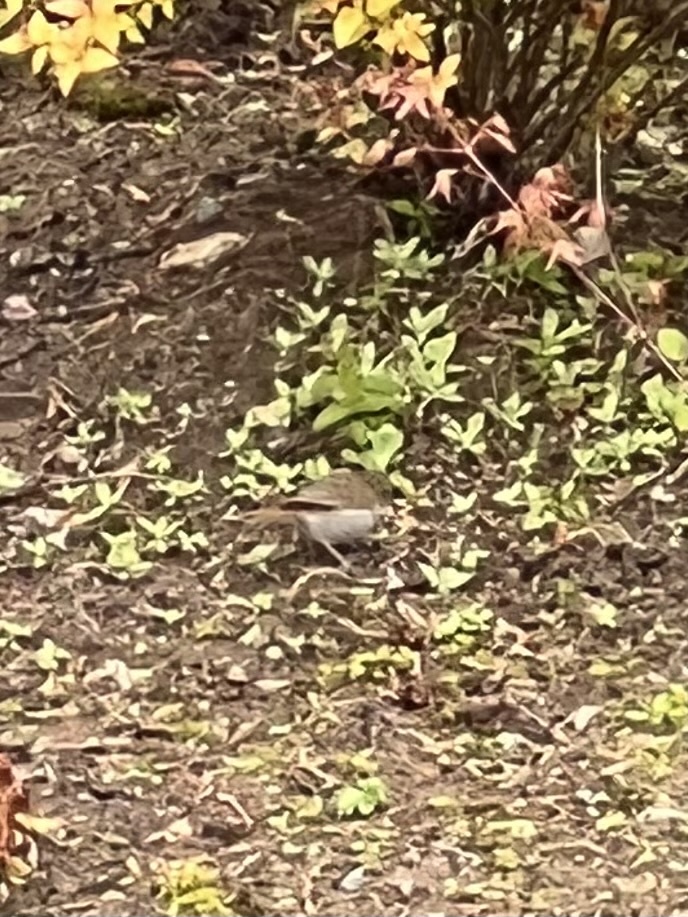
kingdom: Animalia
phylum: Chordata
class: Aves
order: Passeriformes
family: Turdidae
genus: Catharus
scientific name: Catharus guttatus
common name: Hermit thrush
